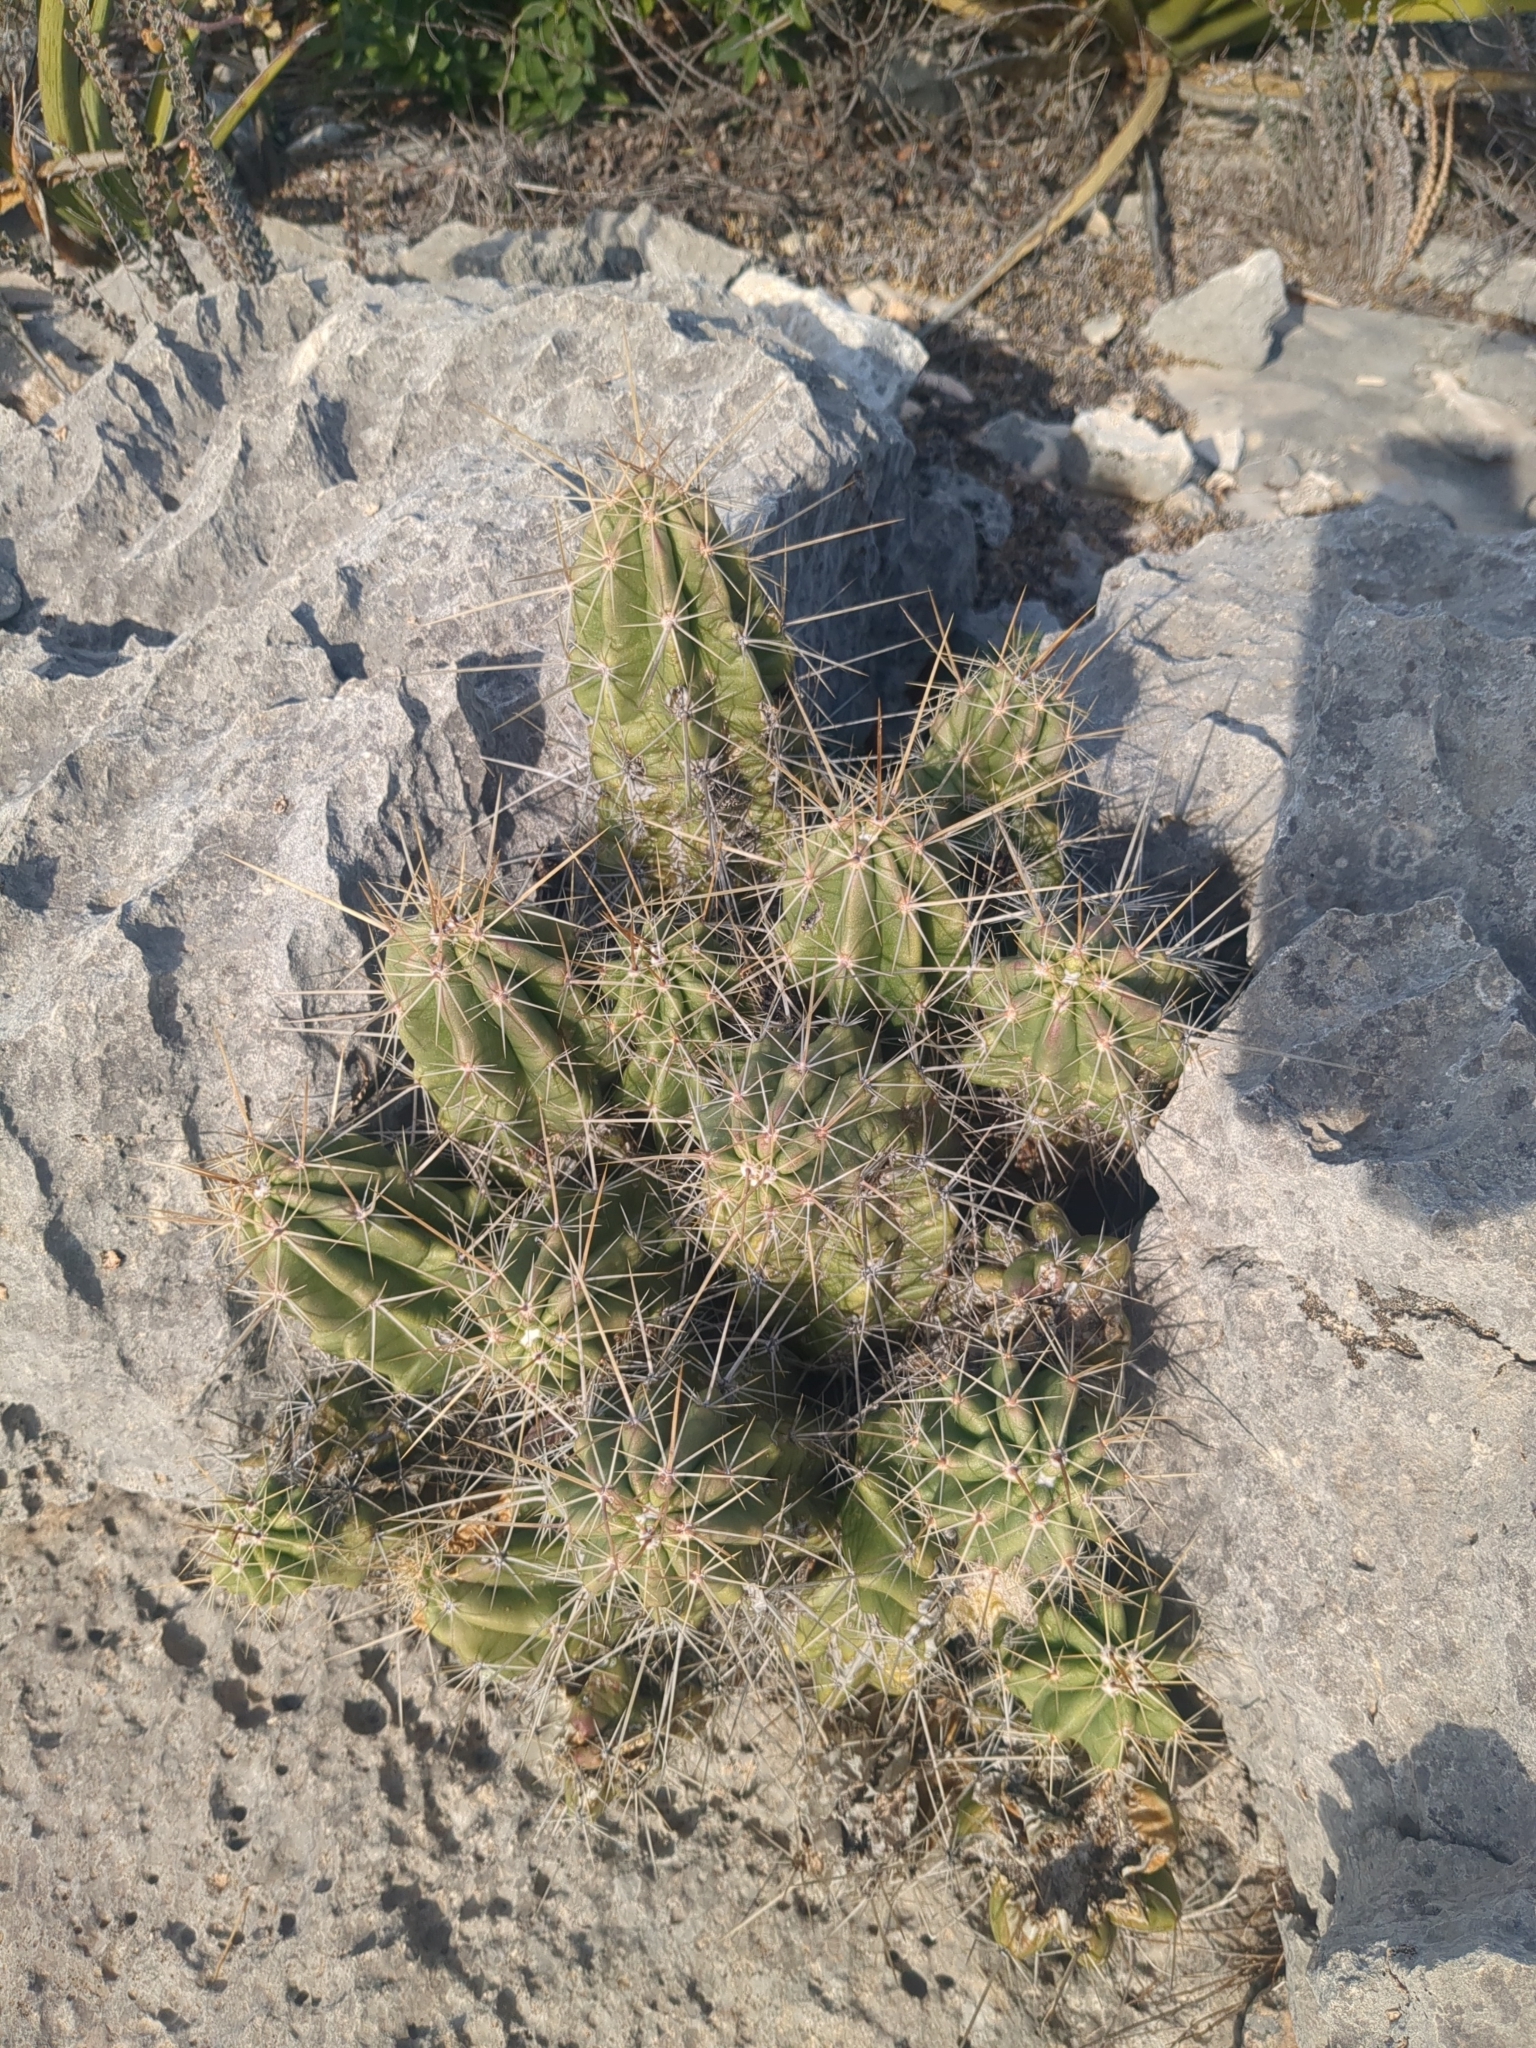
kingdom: Plantae
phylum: Tracheophyta
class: Magnoliopsida
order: Caryophyllales
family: Cactaceae
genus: Echinocereus
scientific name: Echinocereus enneacanthus
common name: Pitaya
